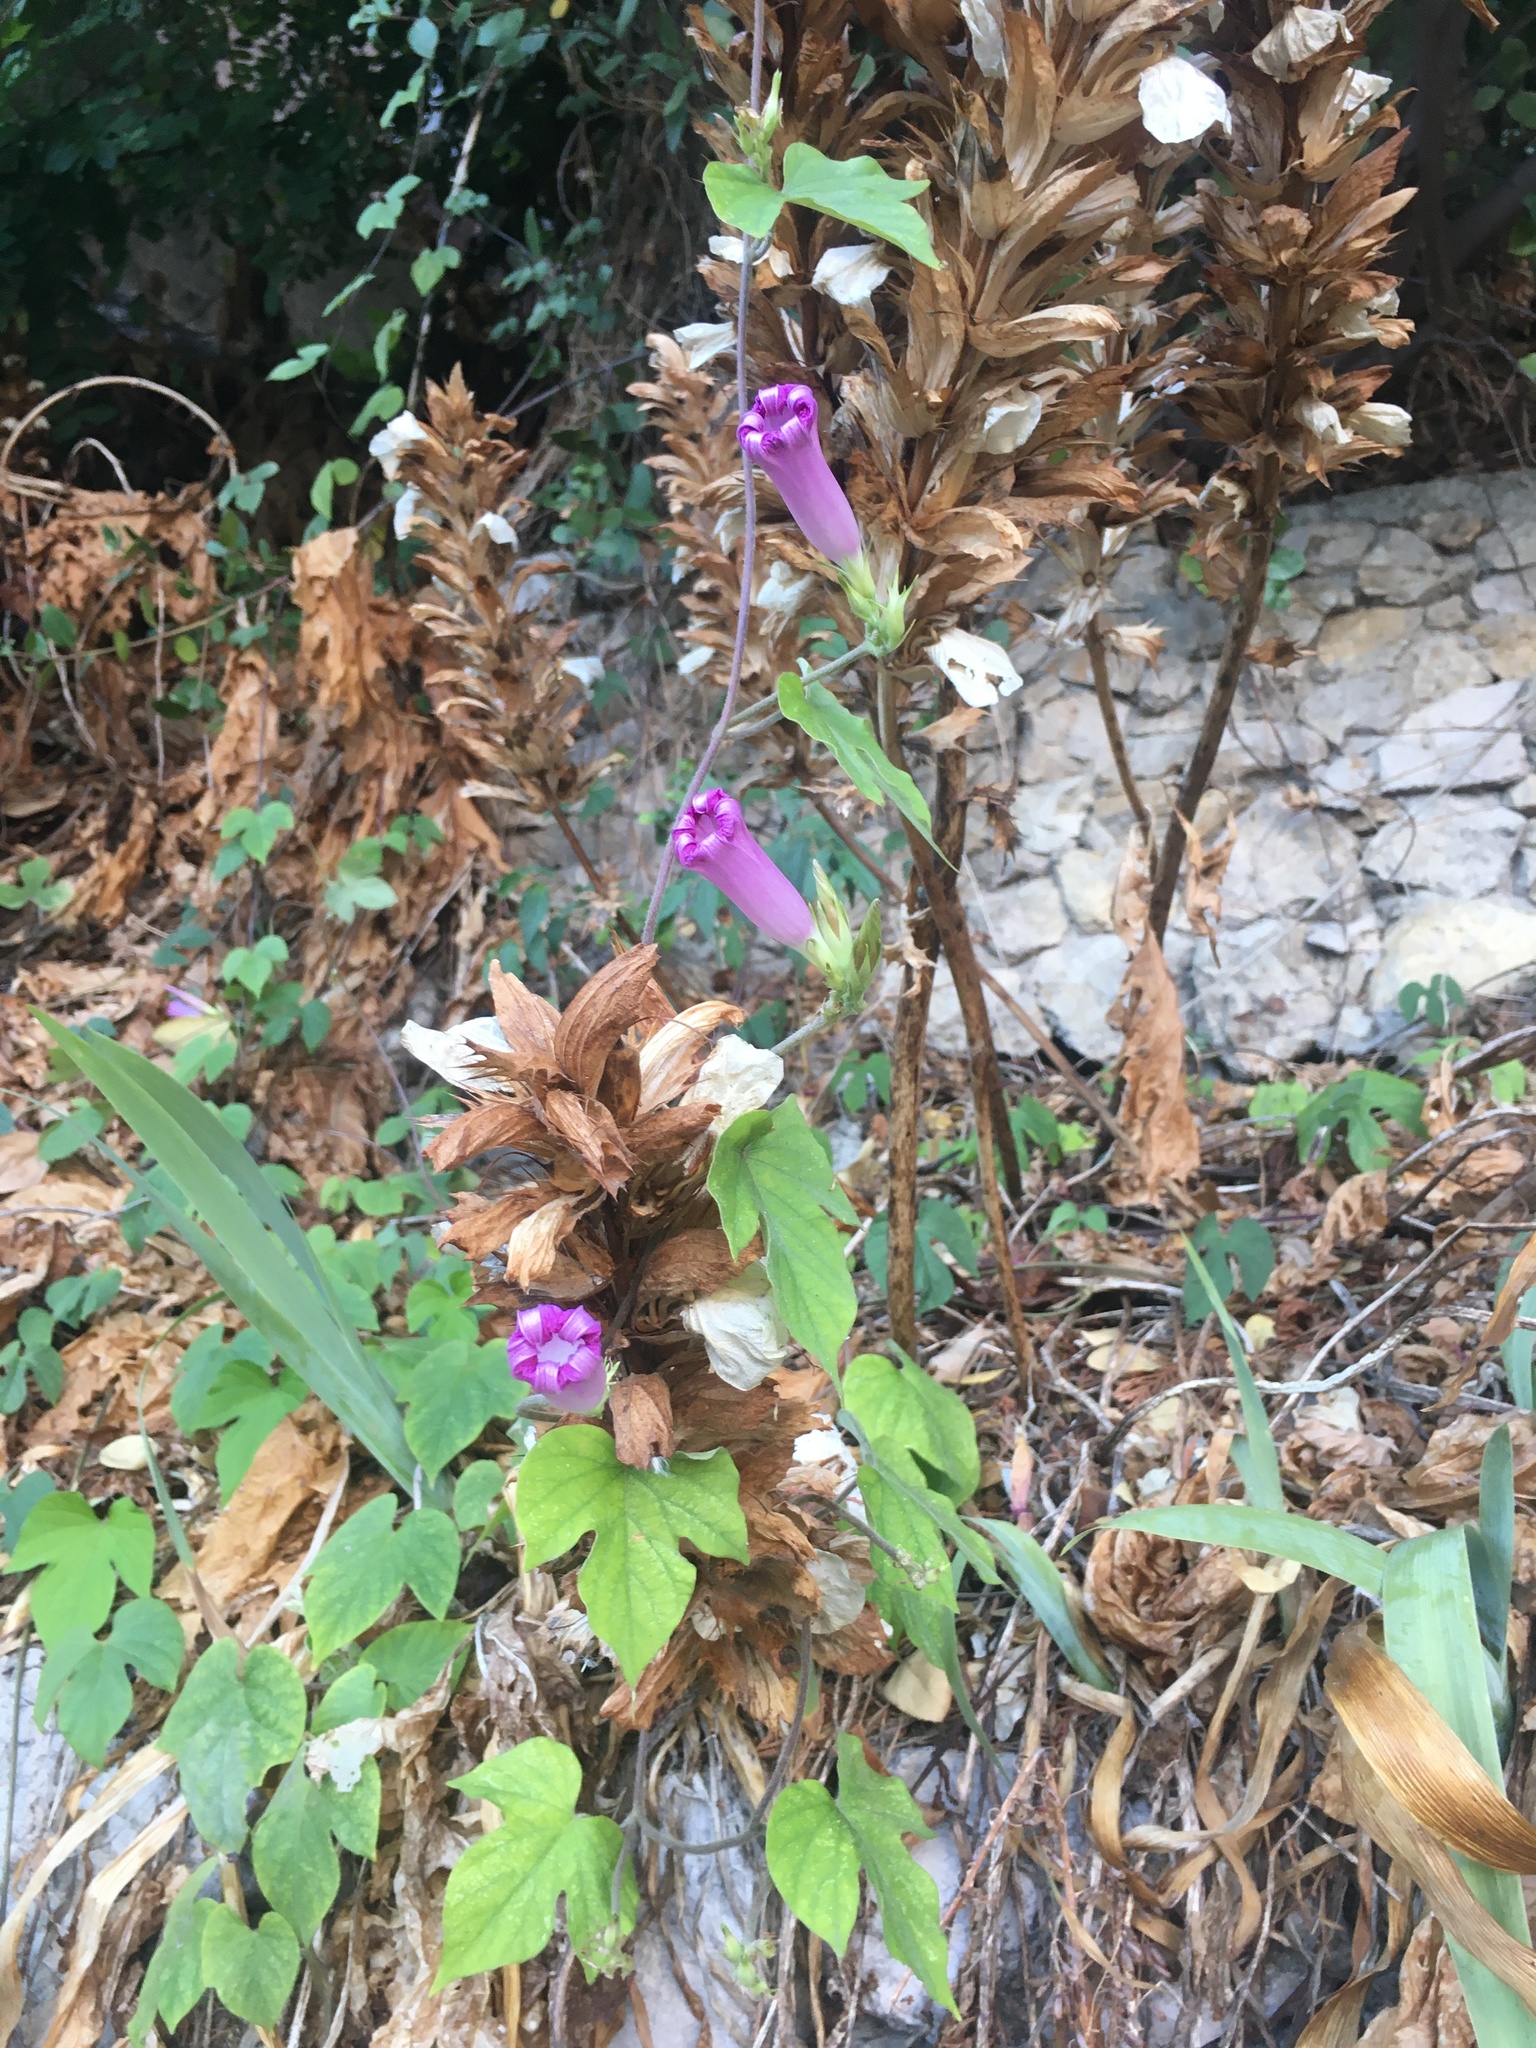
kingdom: Plantae
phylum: Tracheophyta
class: Magnoliopsida
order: Solanales
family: Convolvulaceae
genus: Ipomoea
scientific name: Ipomoea indica
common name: Blue dawnflower
